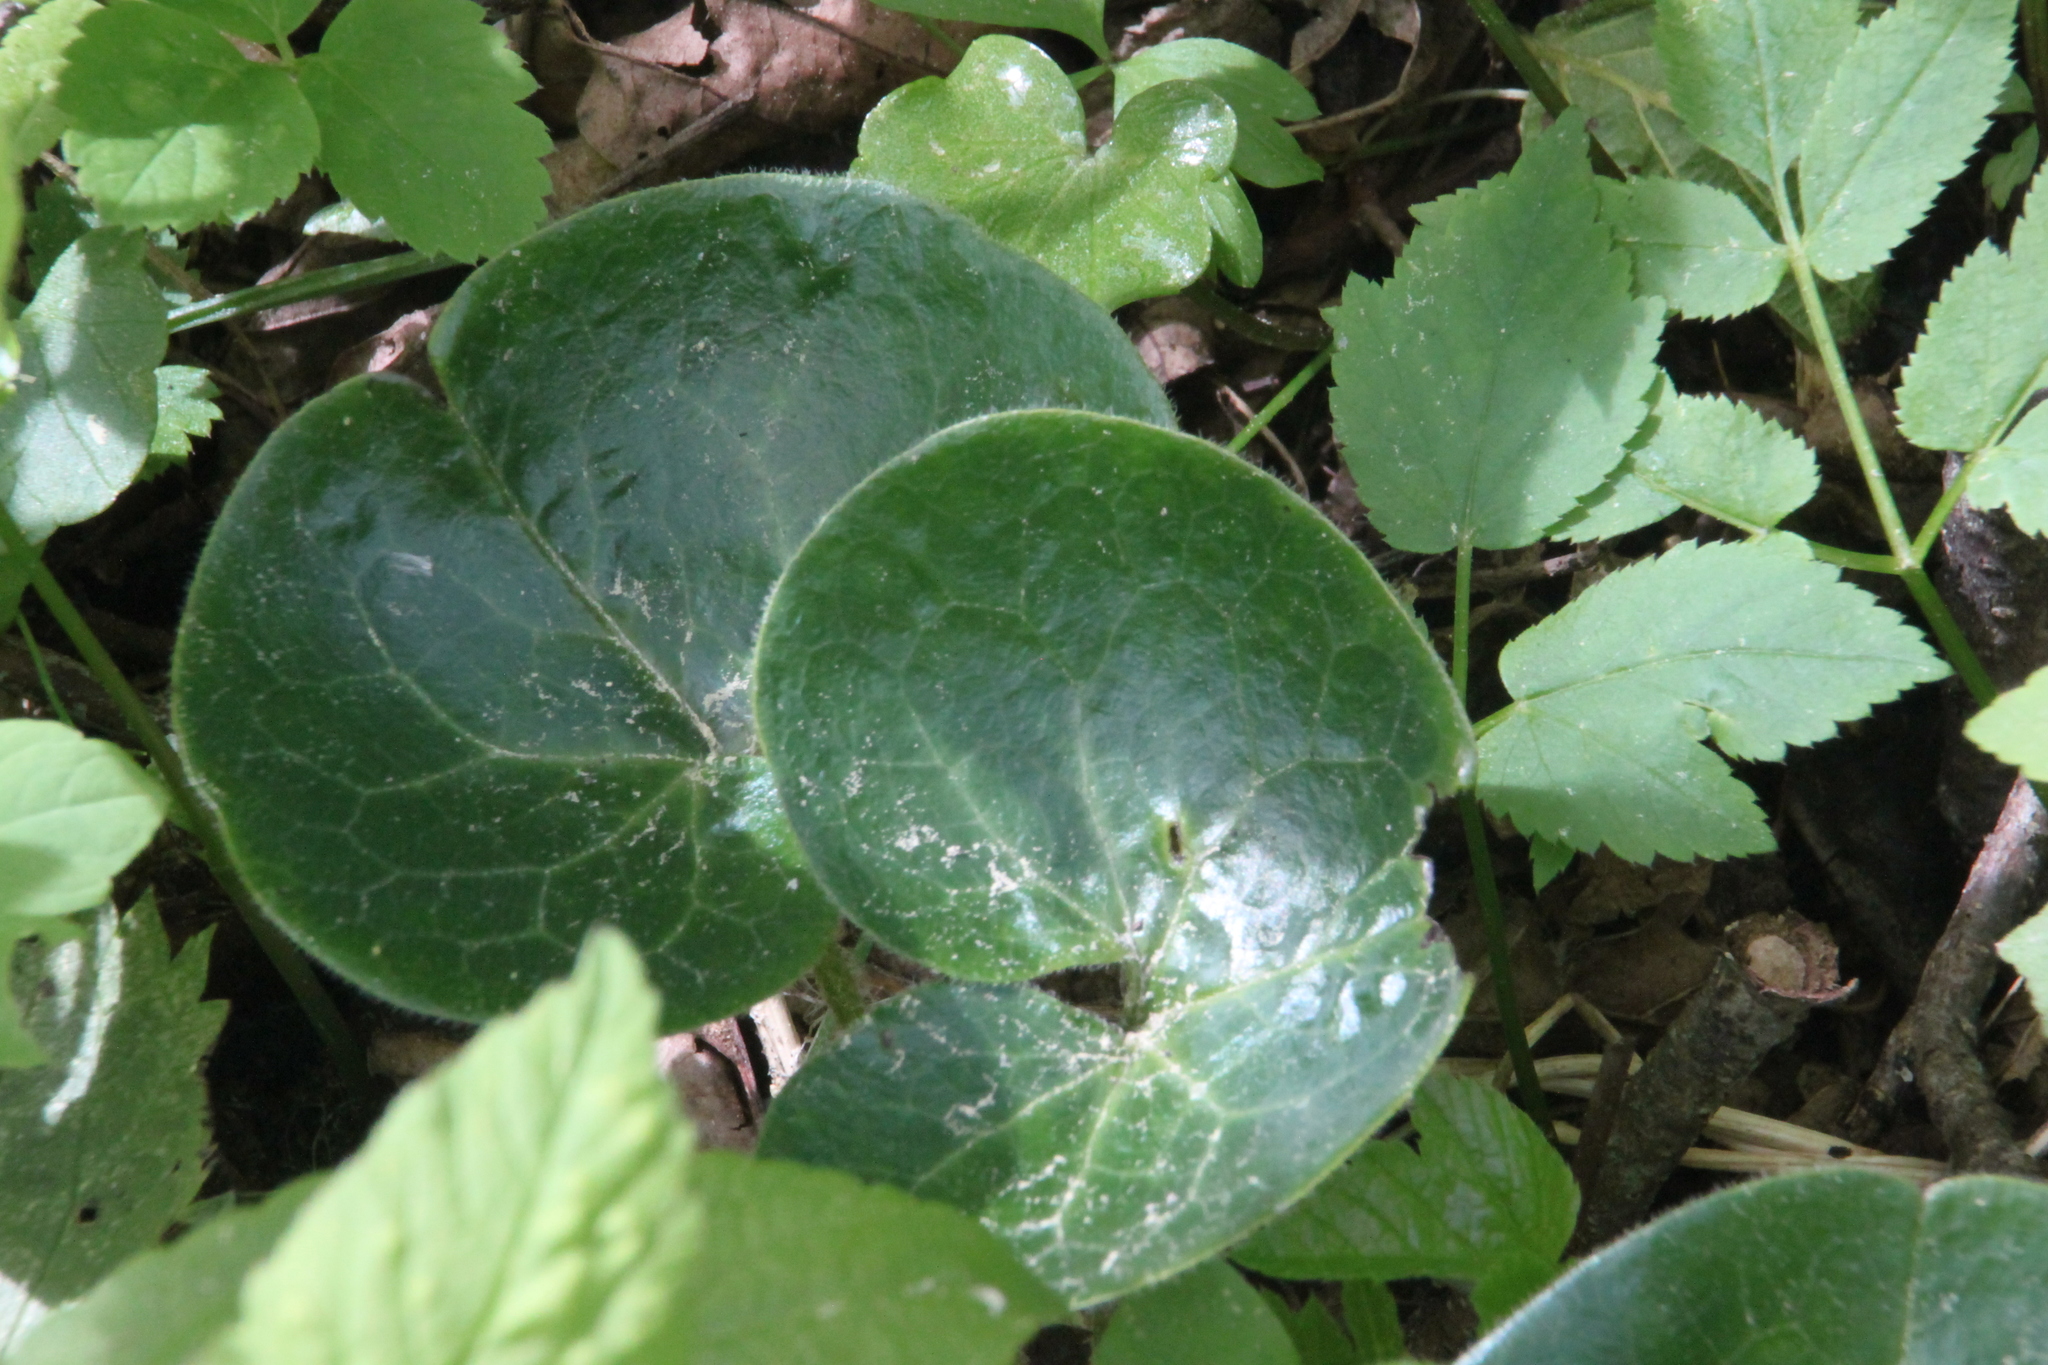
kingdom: Plantae
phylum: Tracheophyta
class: Magnoliopsida
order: Piperales
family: Aristolochiaceae
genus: Asarum
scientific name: Asarum europaeum
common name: Asarabacca
